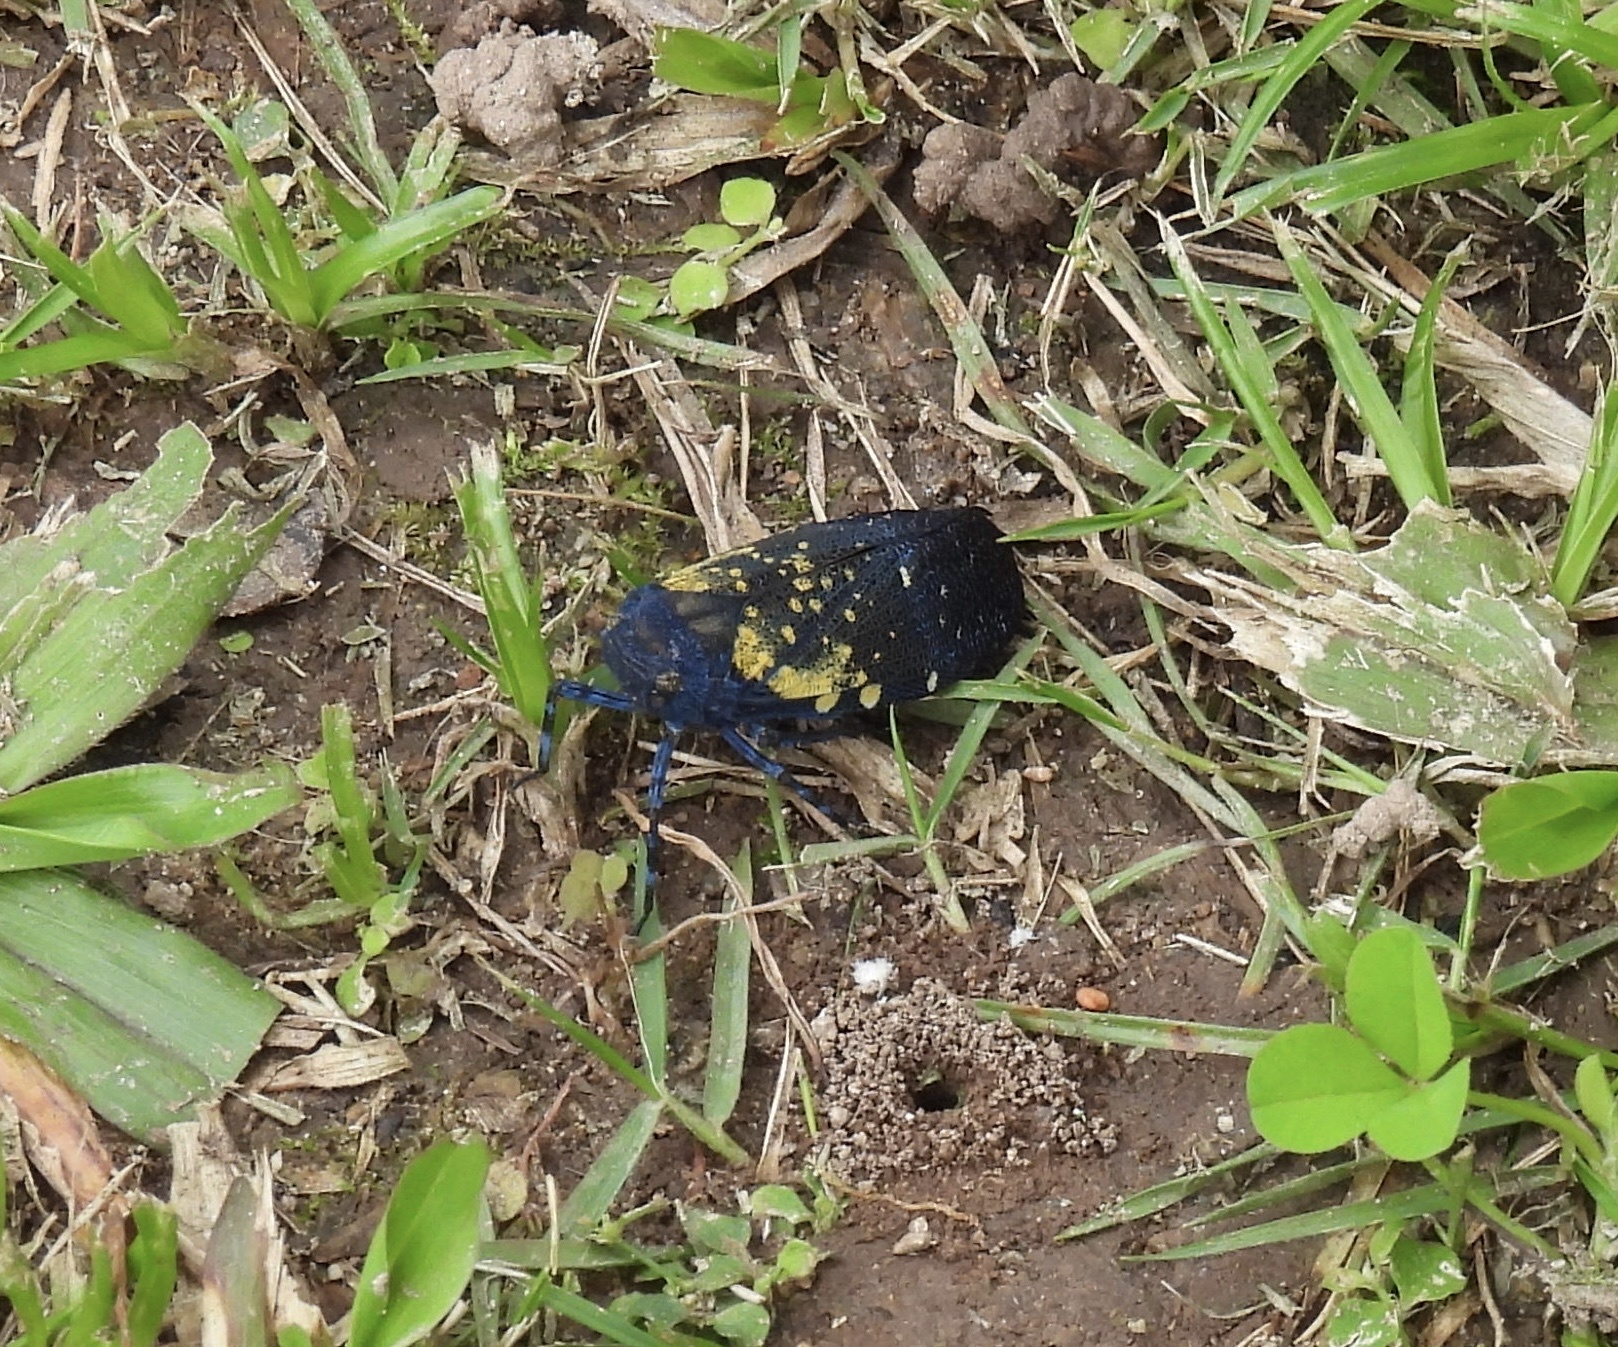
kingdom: Animalia
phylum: Arthropoda
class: Insecta
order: Hemiptera
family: Fulgoridae
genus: Jamaicastes
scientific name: Jamaicastes basistella
